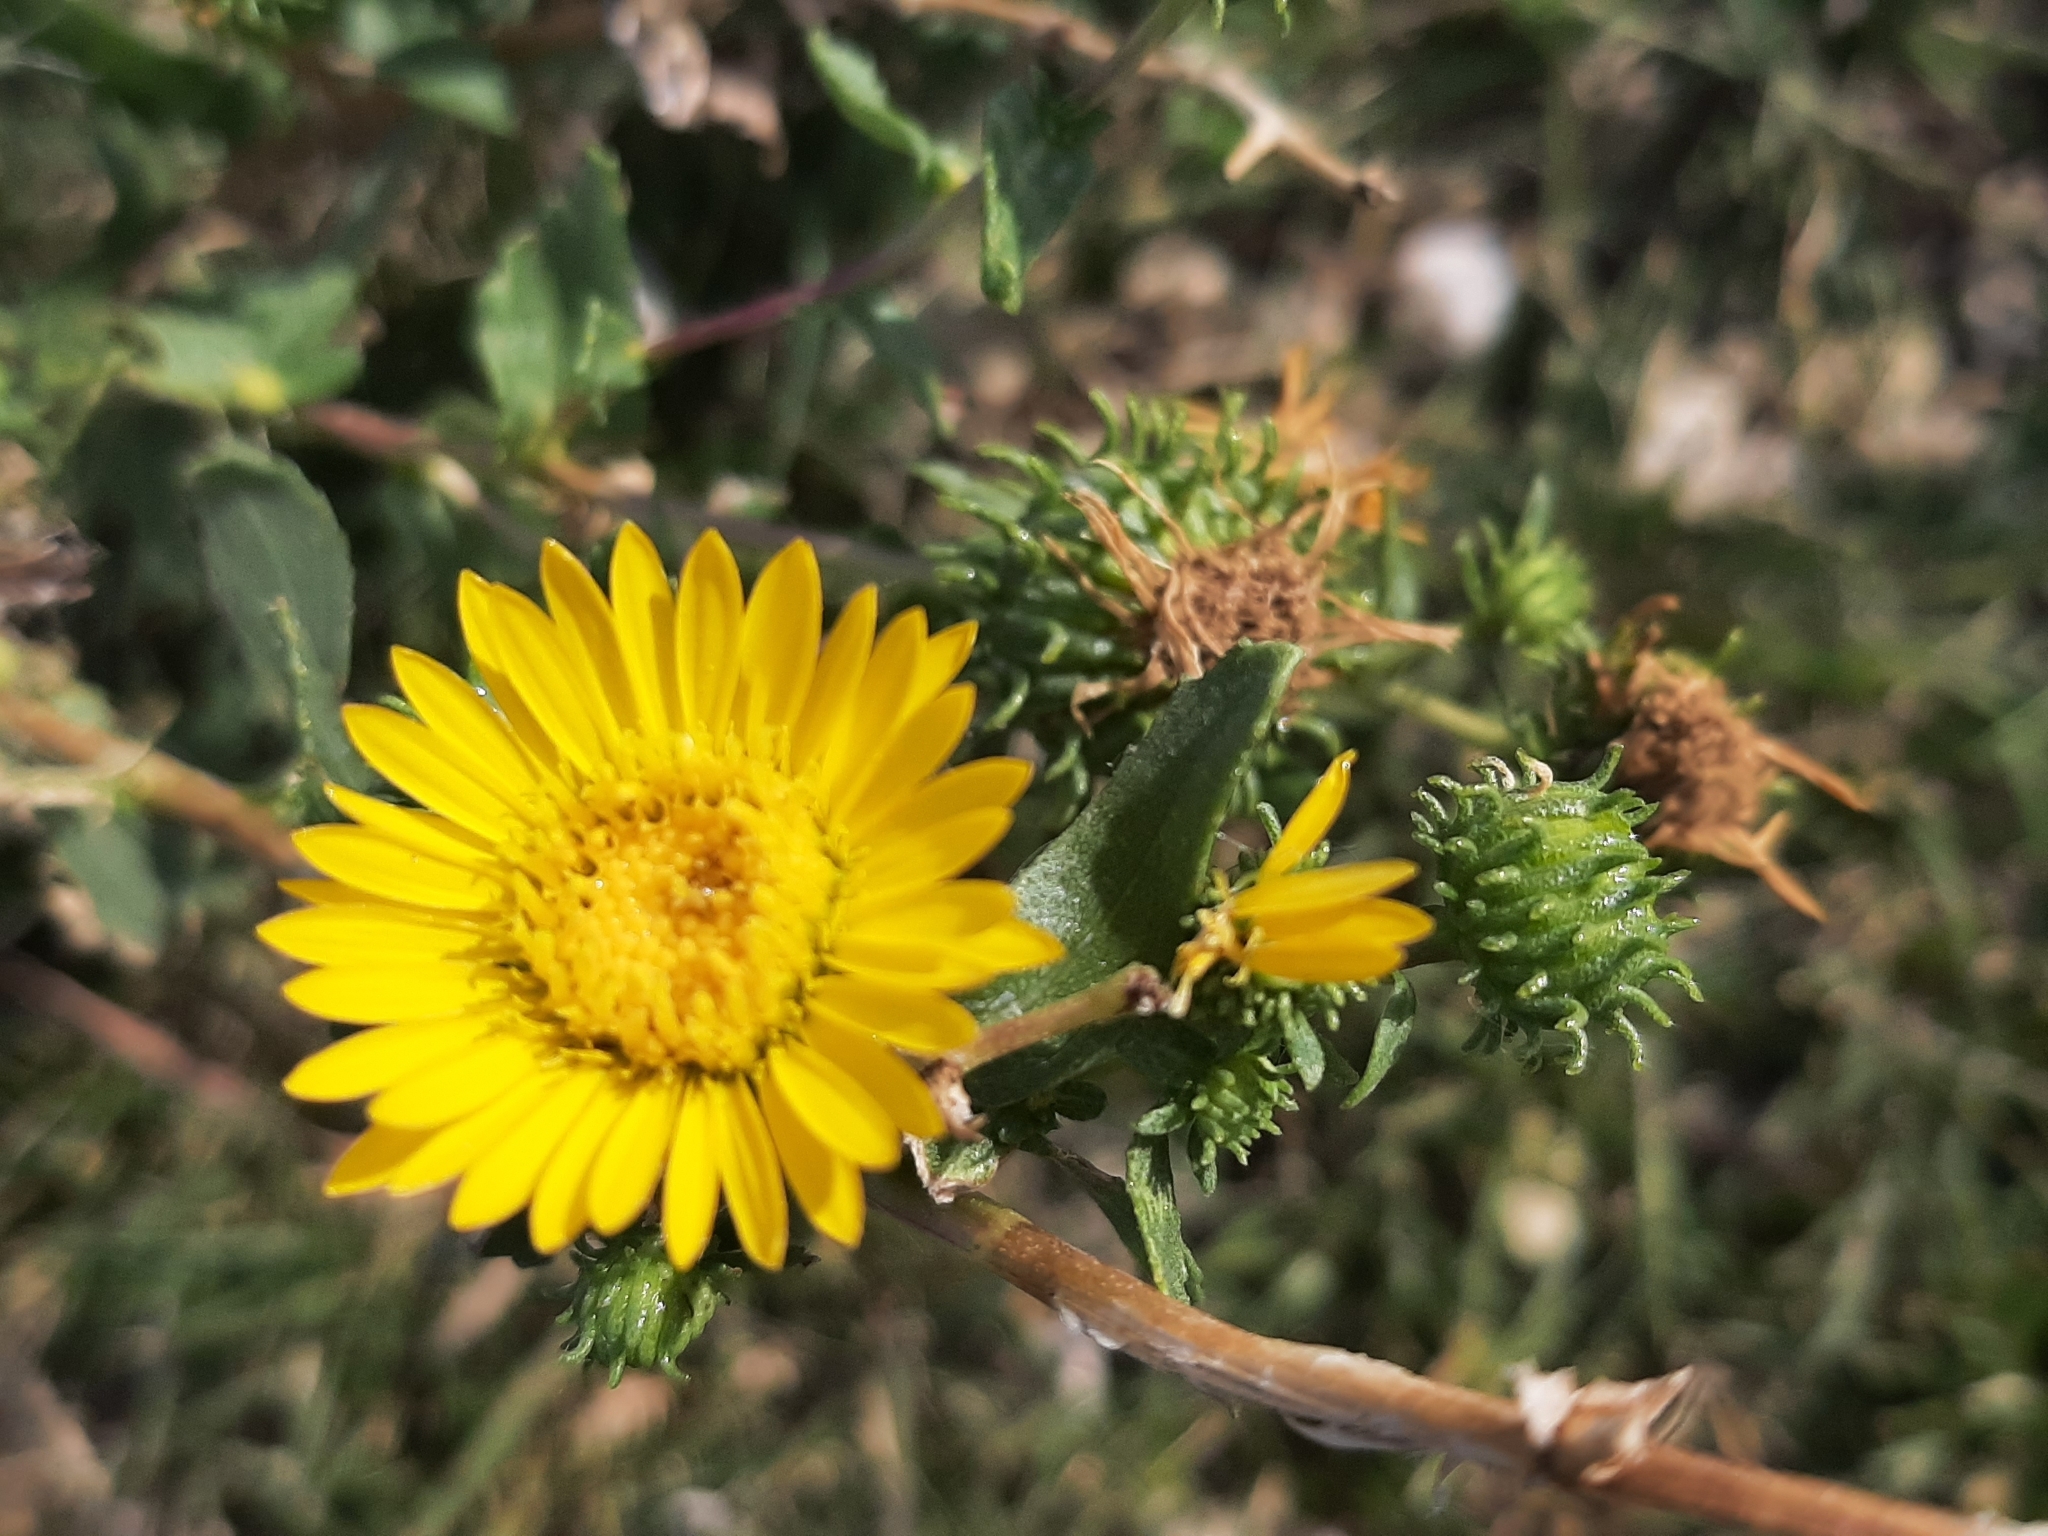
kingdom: Plantae
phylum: Tracheophyta
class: Magnoliopsida
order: Asterales
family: Asteraceae
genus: Grindelia
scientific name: Grindelia squarrosa
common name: Curly-cup gumweed
